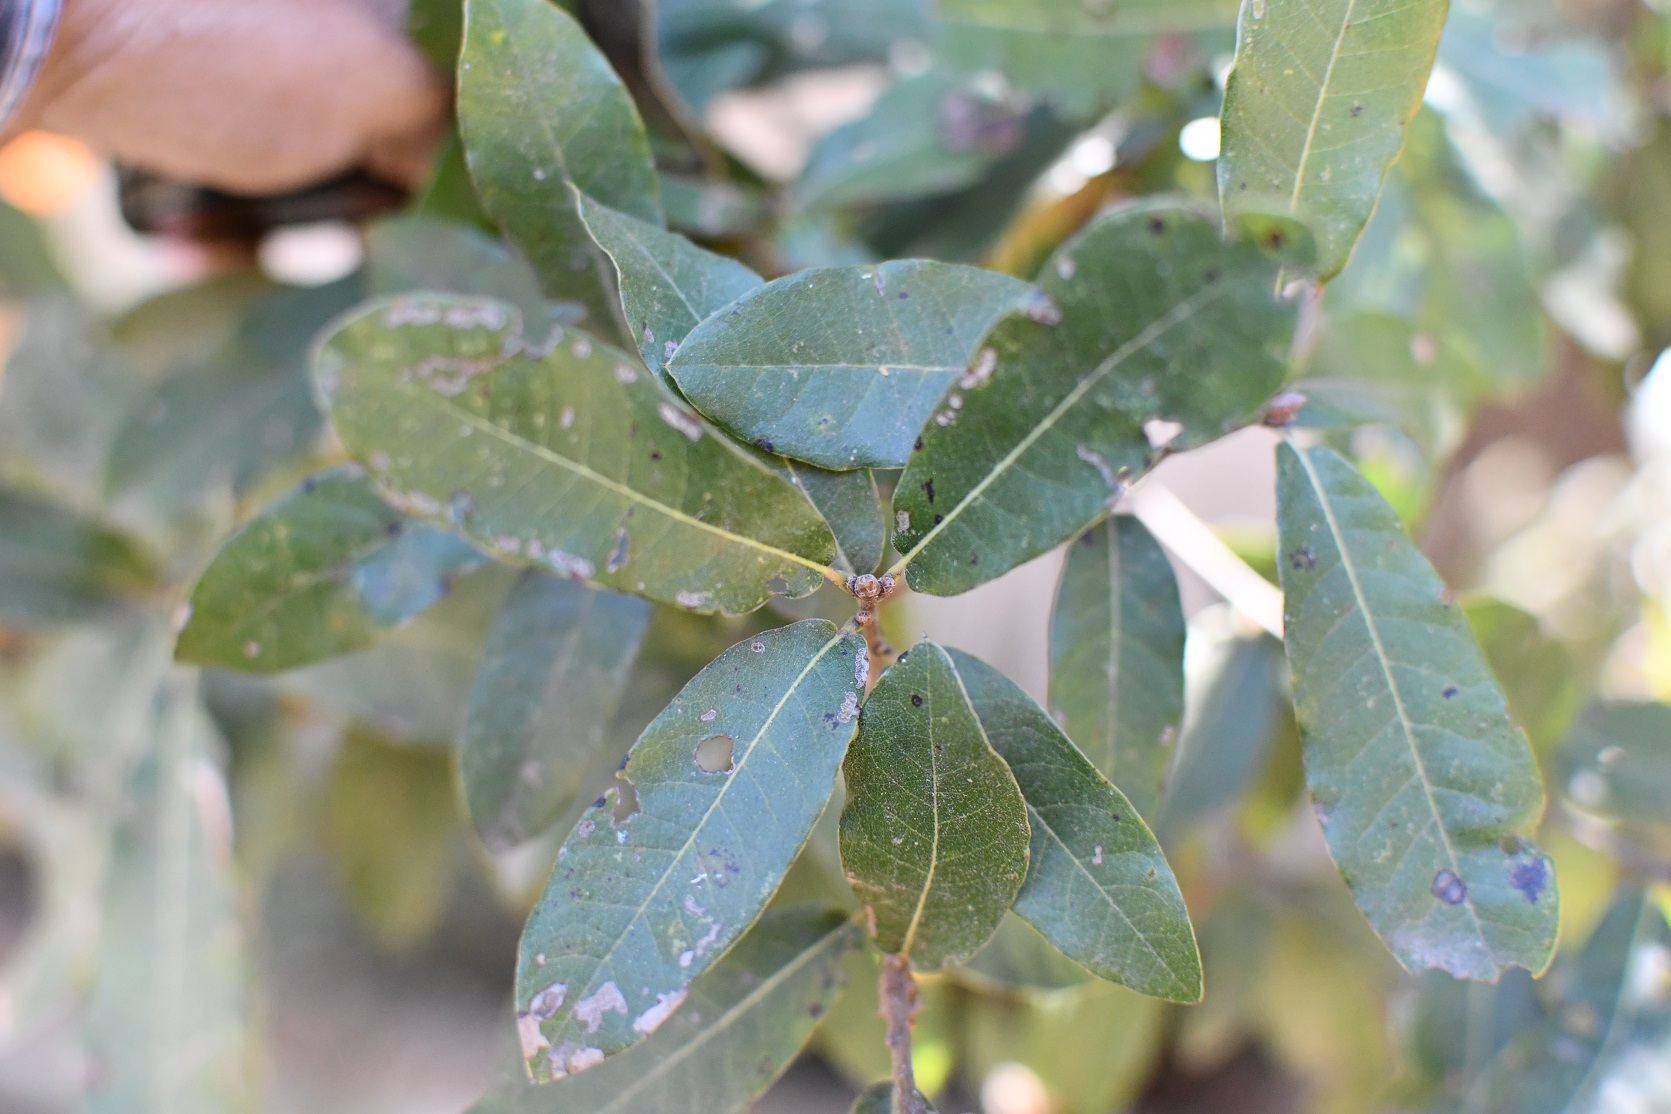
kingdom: Plantae
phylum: Tracheophyta
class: Magnoliopsida
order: Fagales
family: Fagaceae
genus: Quercus
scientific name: Quercus crispipilis
